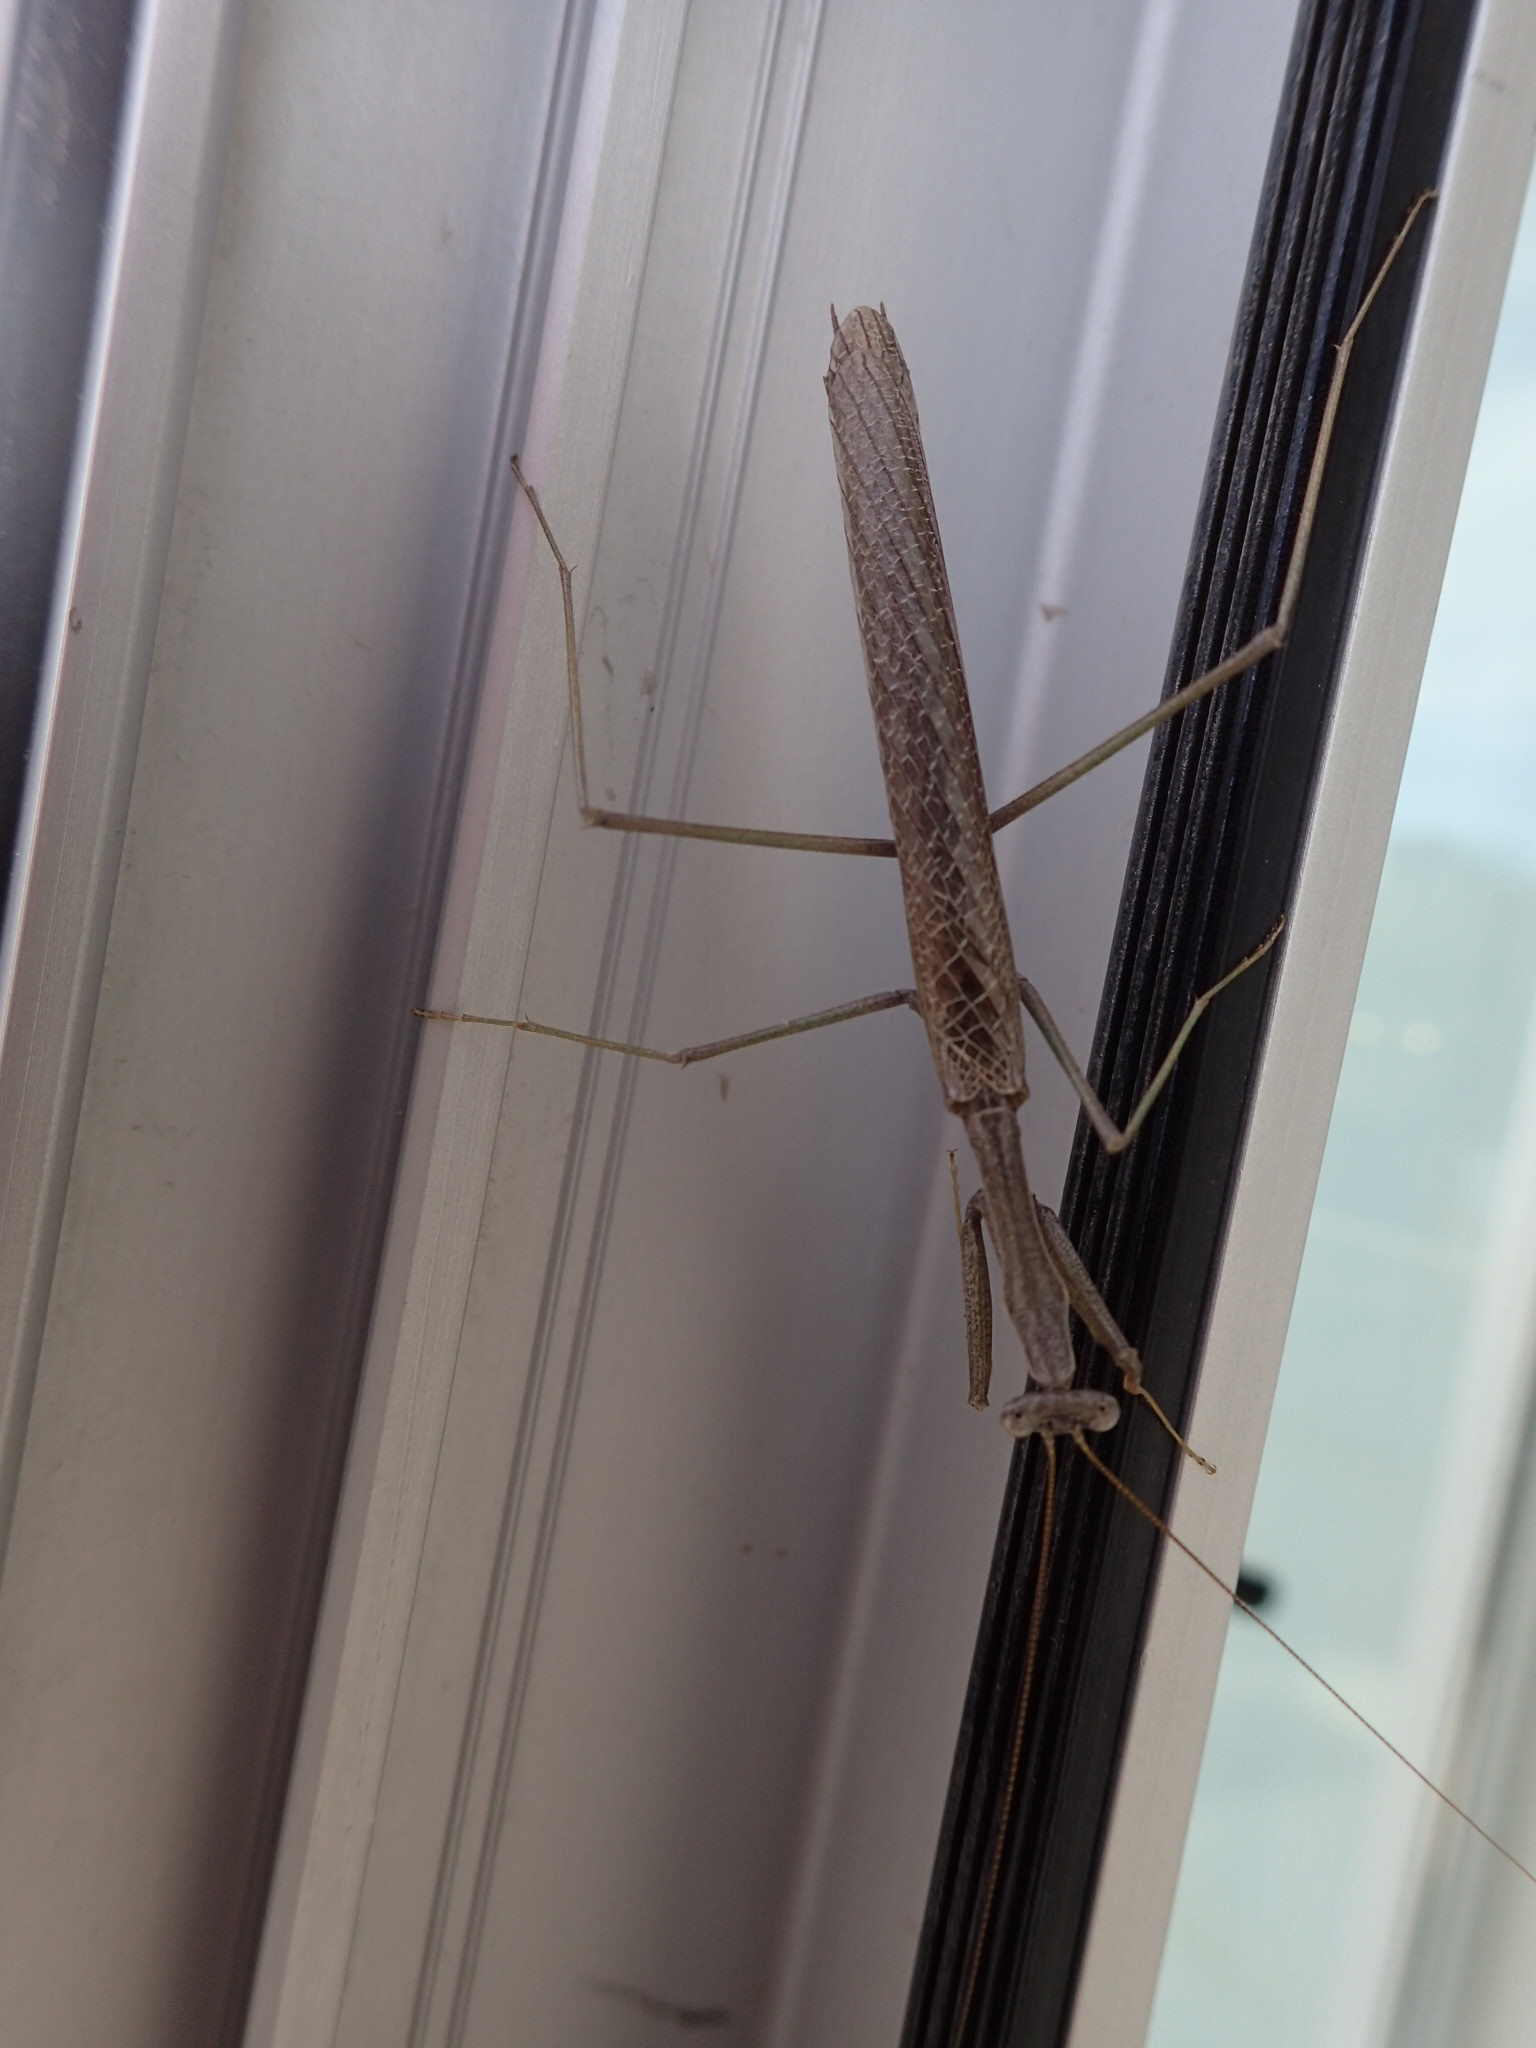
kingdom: Animalia
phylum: Arthropoda
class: Insecta
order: Mantodea
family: Coptopterygidae
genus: Coptopteryx
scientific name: Coptopteryx gayi
